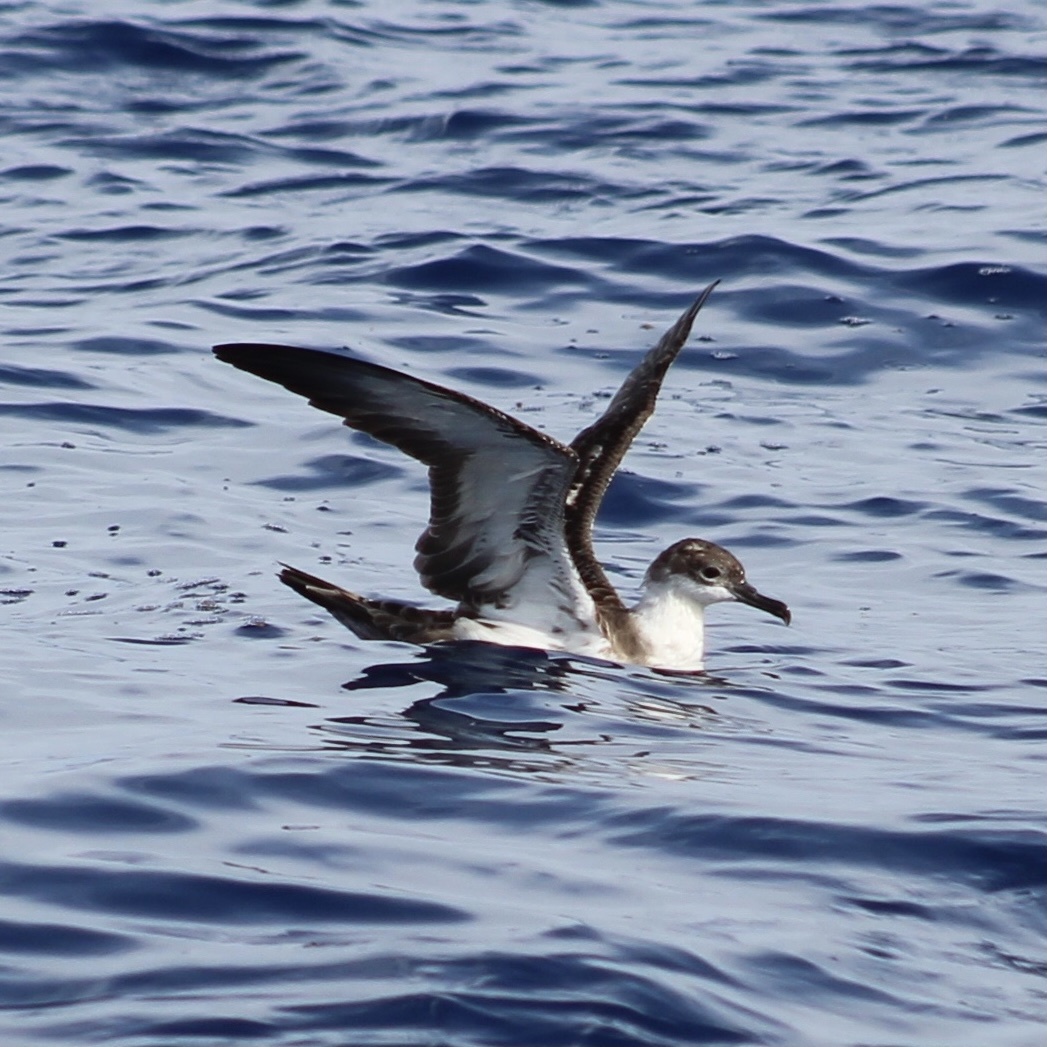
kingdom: Animalia
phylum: Chordata
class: Aves
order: Procellariiformes
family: Procellariidae
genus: Puffinus
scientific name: Puffinus gravis
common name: Great shearwater
